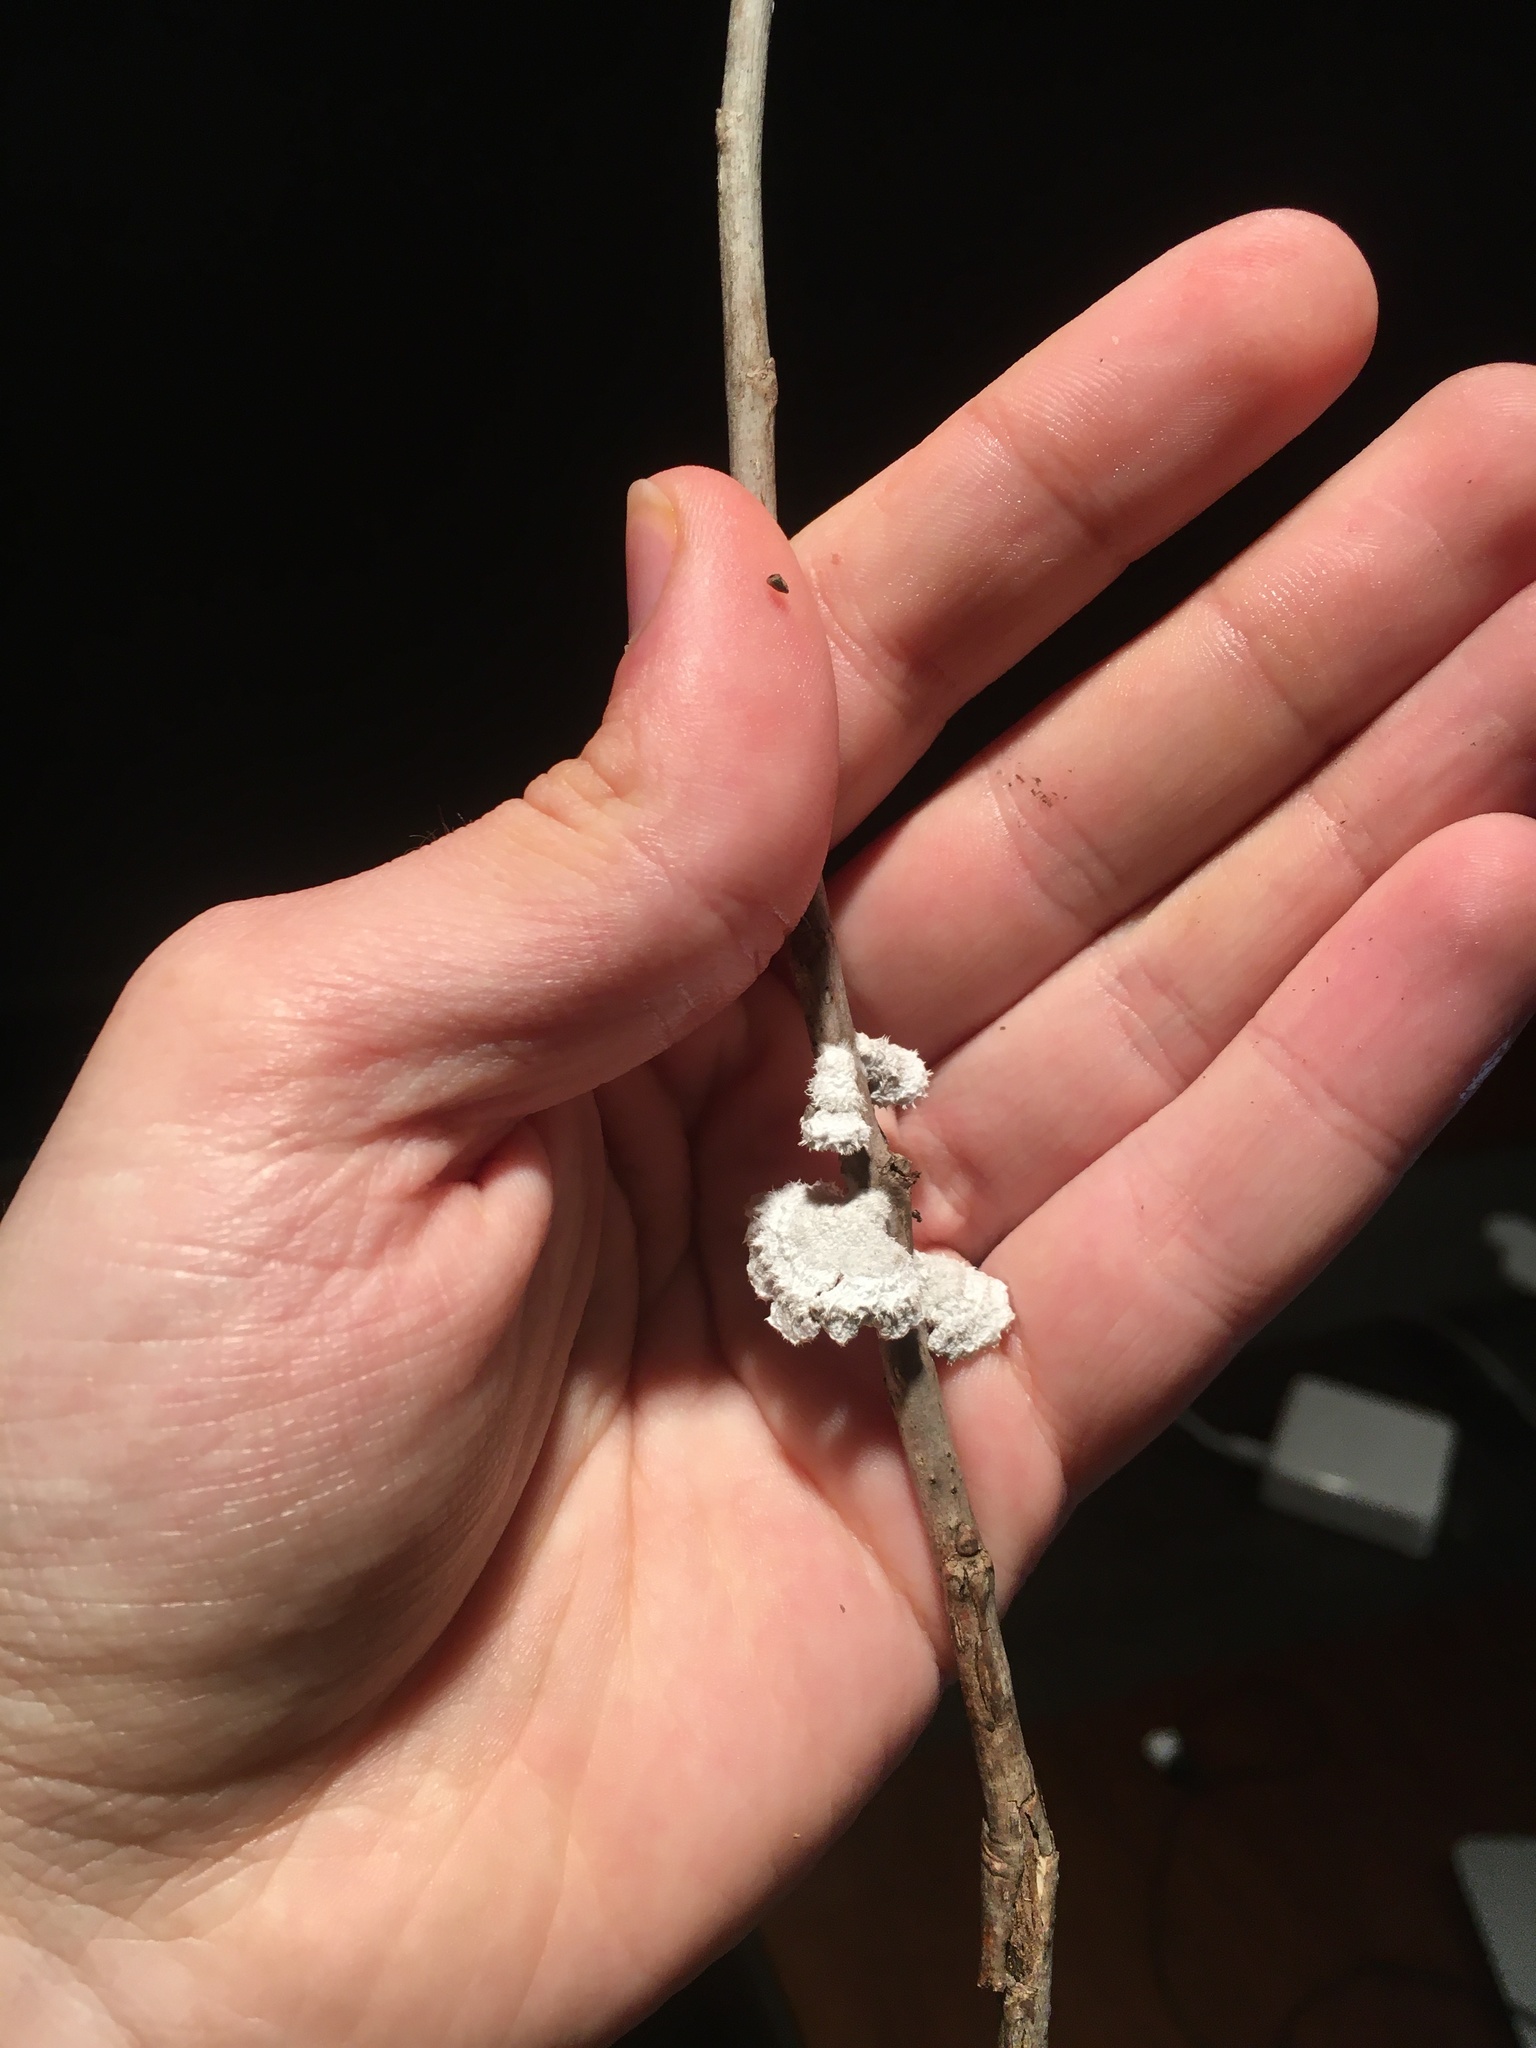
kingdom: Fungi
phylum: Basidiomycota
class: Agaricomycetes
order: Agaricales
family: Schizophyllaceae
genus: Schizophyllum
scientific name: Schizophyllum commune
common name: Common porecrust
